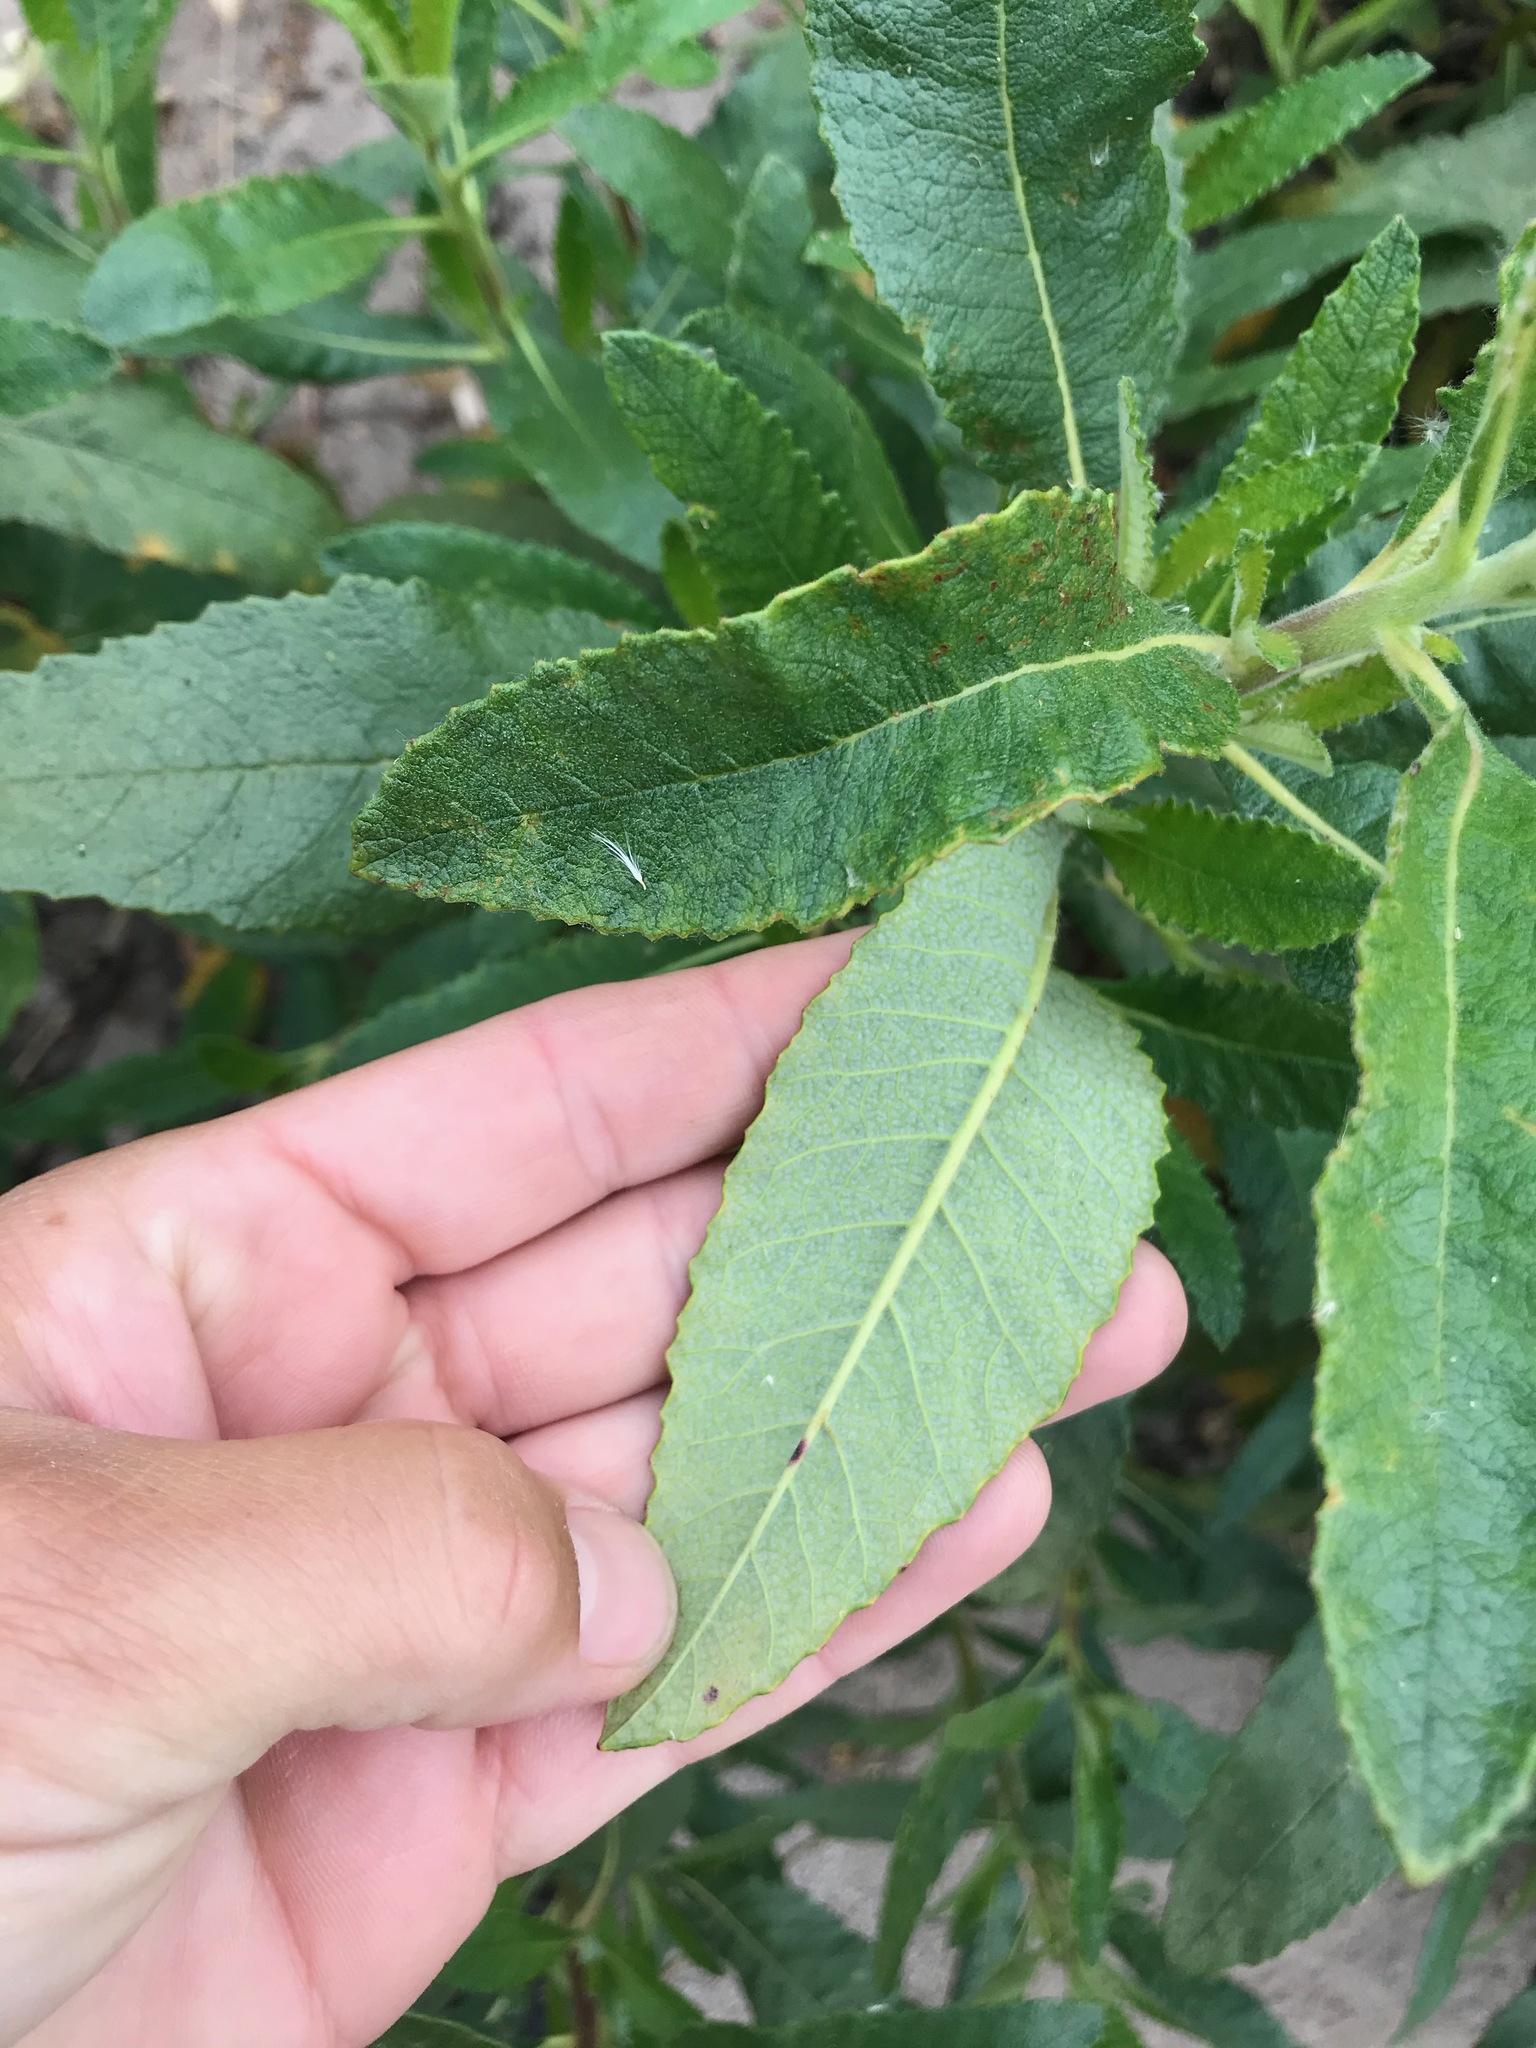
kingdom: Plantae
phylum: Tracheophyta
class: Magnoliopsida
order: Boraginales
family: Namaceae
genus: Eriodictyon
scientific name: Eriodictyon crassifolium
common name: Thick-leaf yerba-santa
